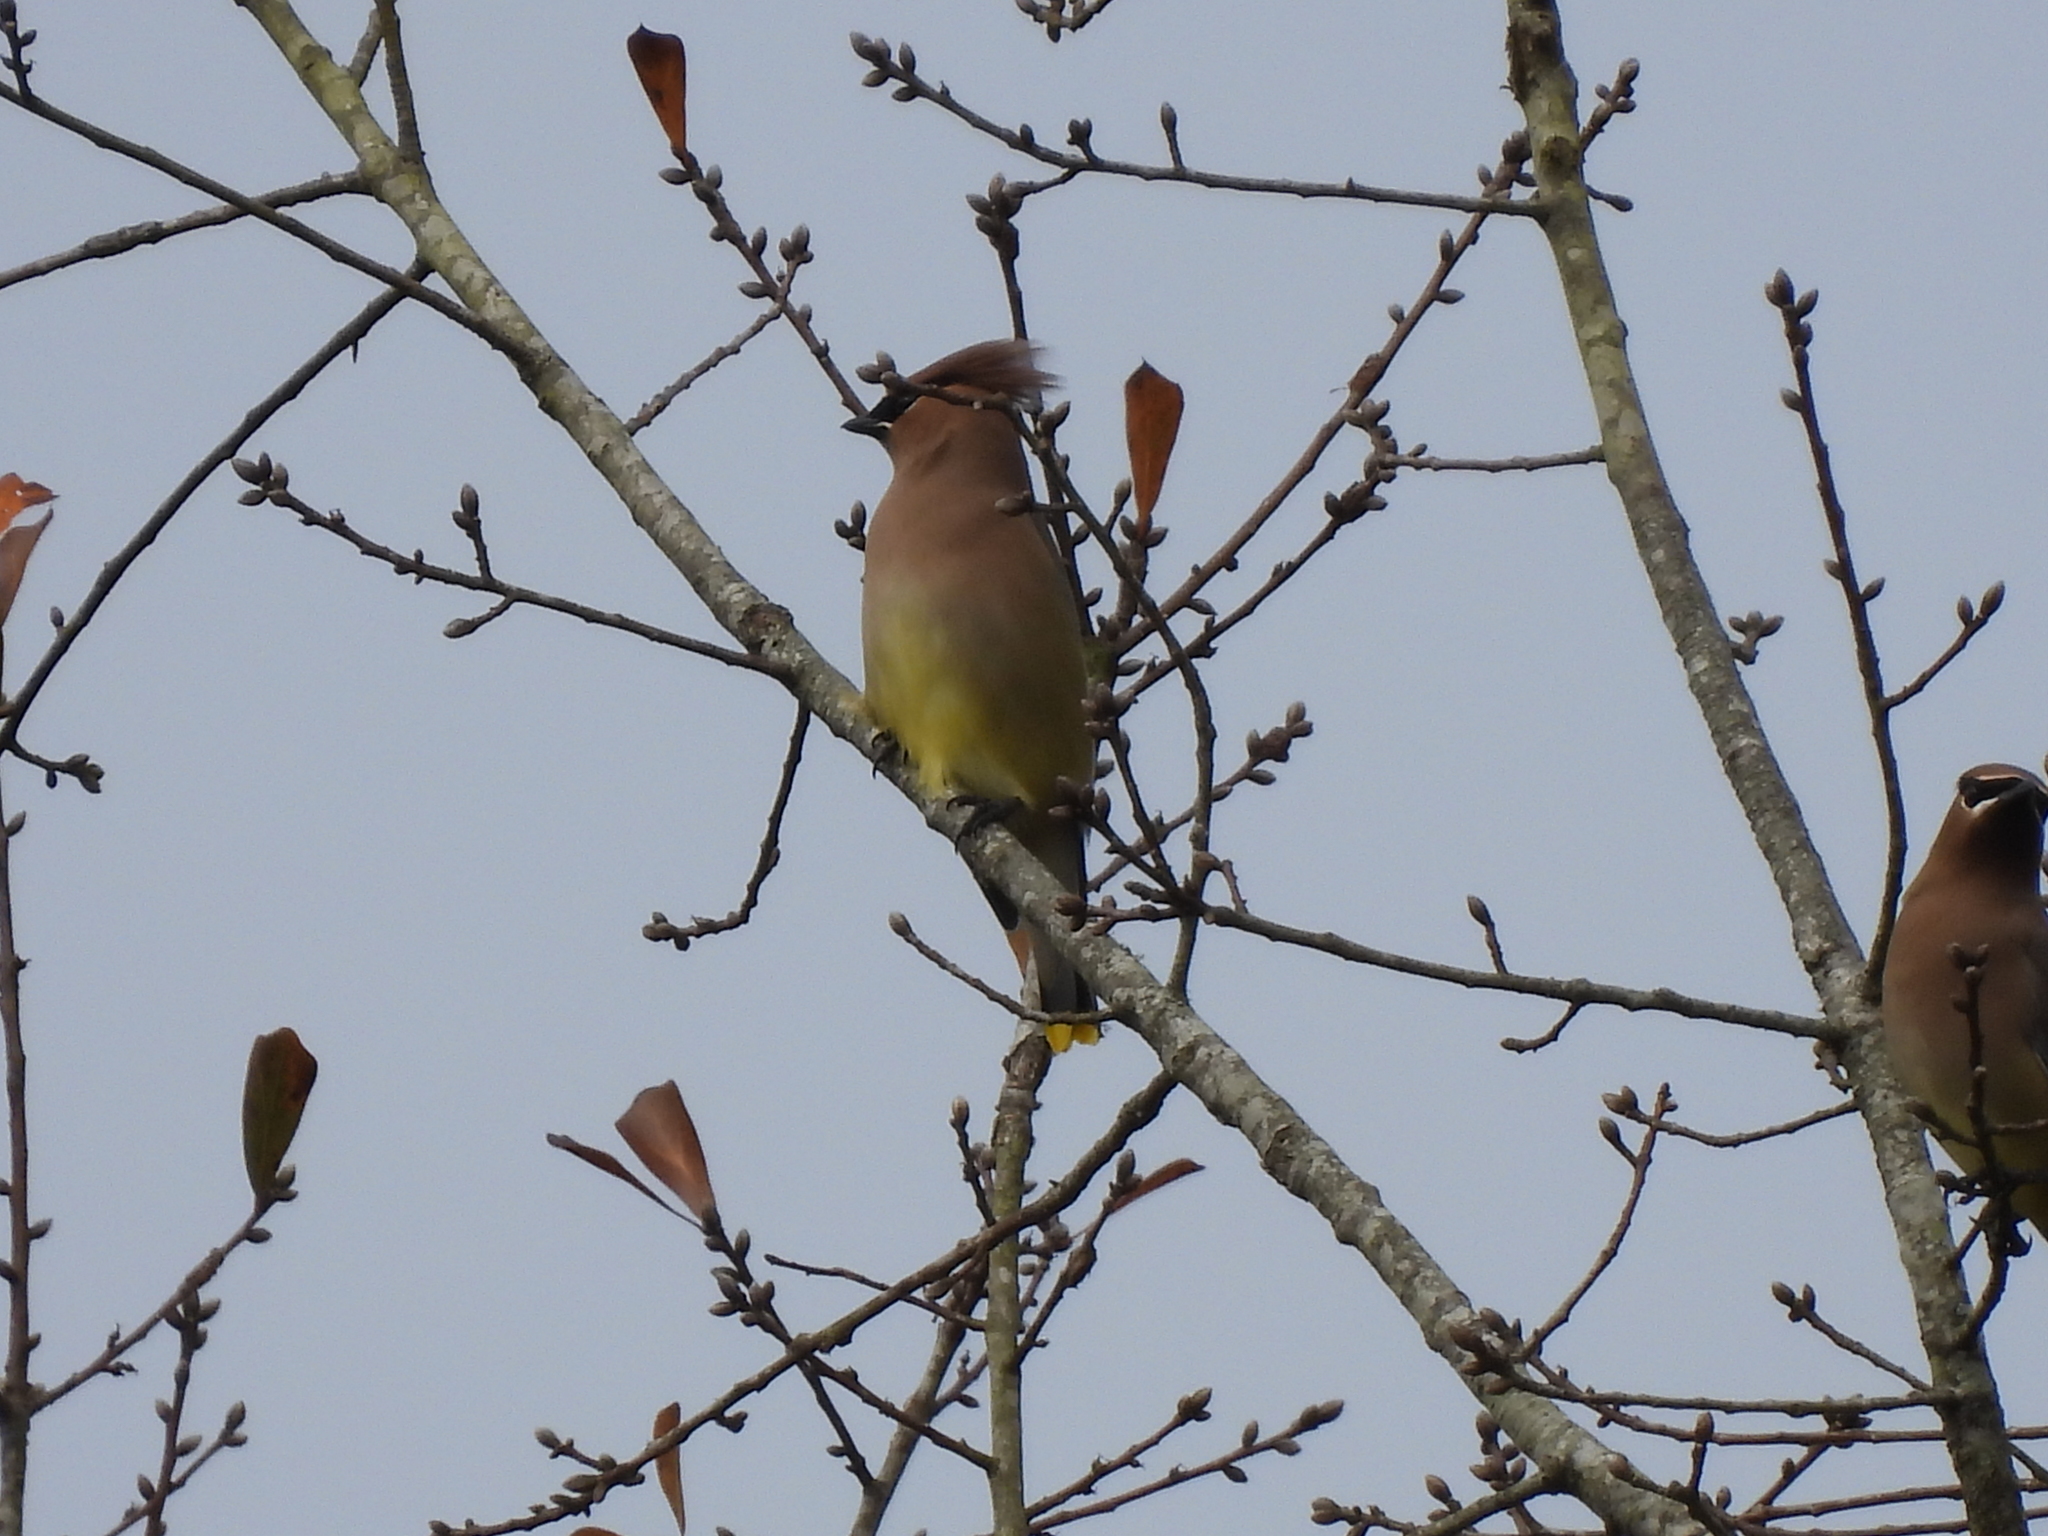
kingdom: Animalia
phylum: Chordata
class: Aves
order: Passeriformes
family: Bombycillidae
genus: Bombycilla
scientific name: Bombycilla cedrorum
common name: Cedar waxwing
